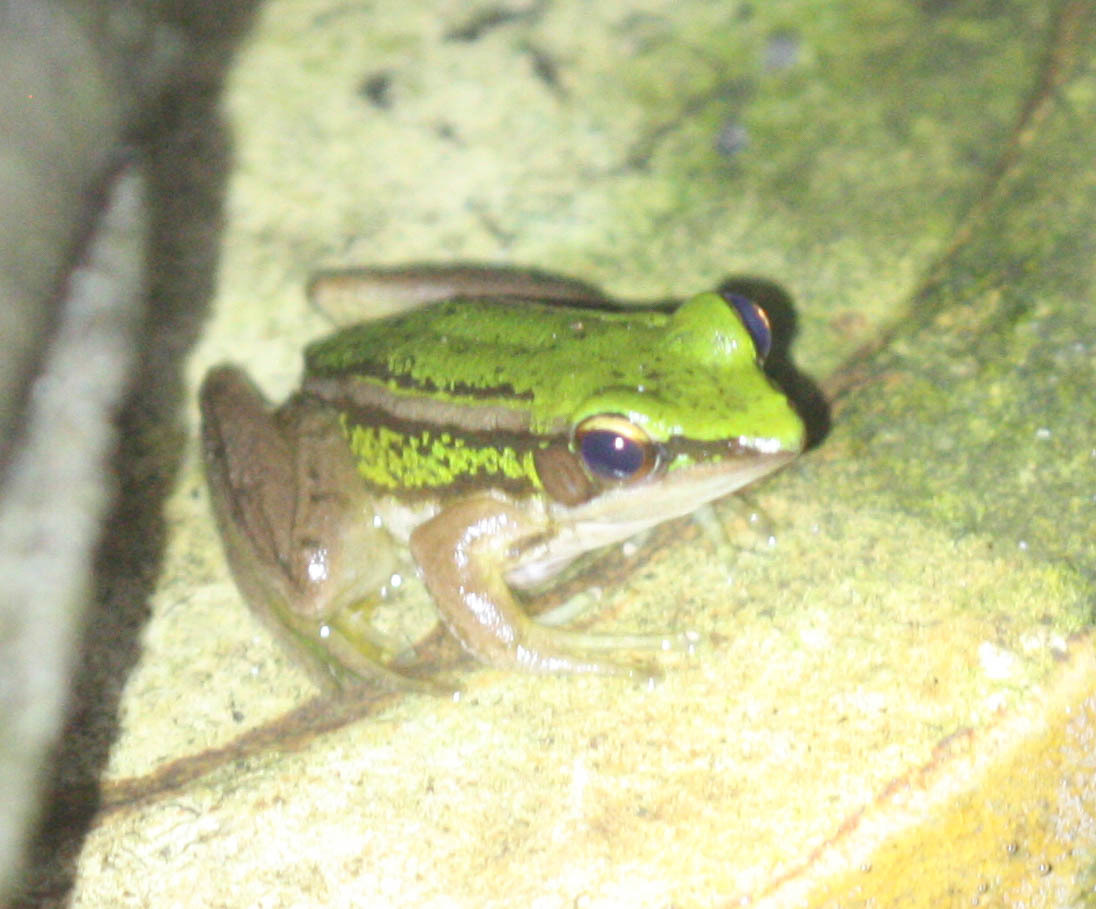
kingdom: Animalia
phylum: Chordata
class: Amphibia
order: Anura
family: Ranidae
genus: Hylarana
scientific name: Hylarana erythraea
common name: Common green frog/green paddy frog/leaf frog
